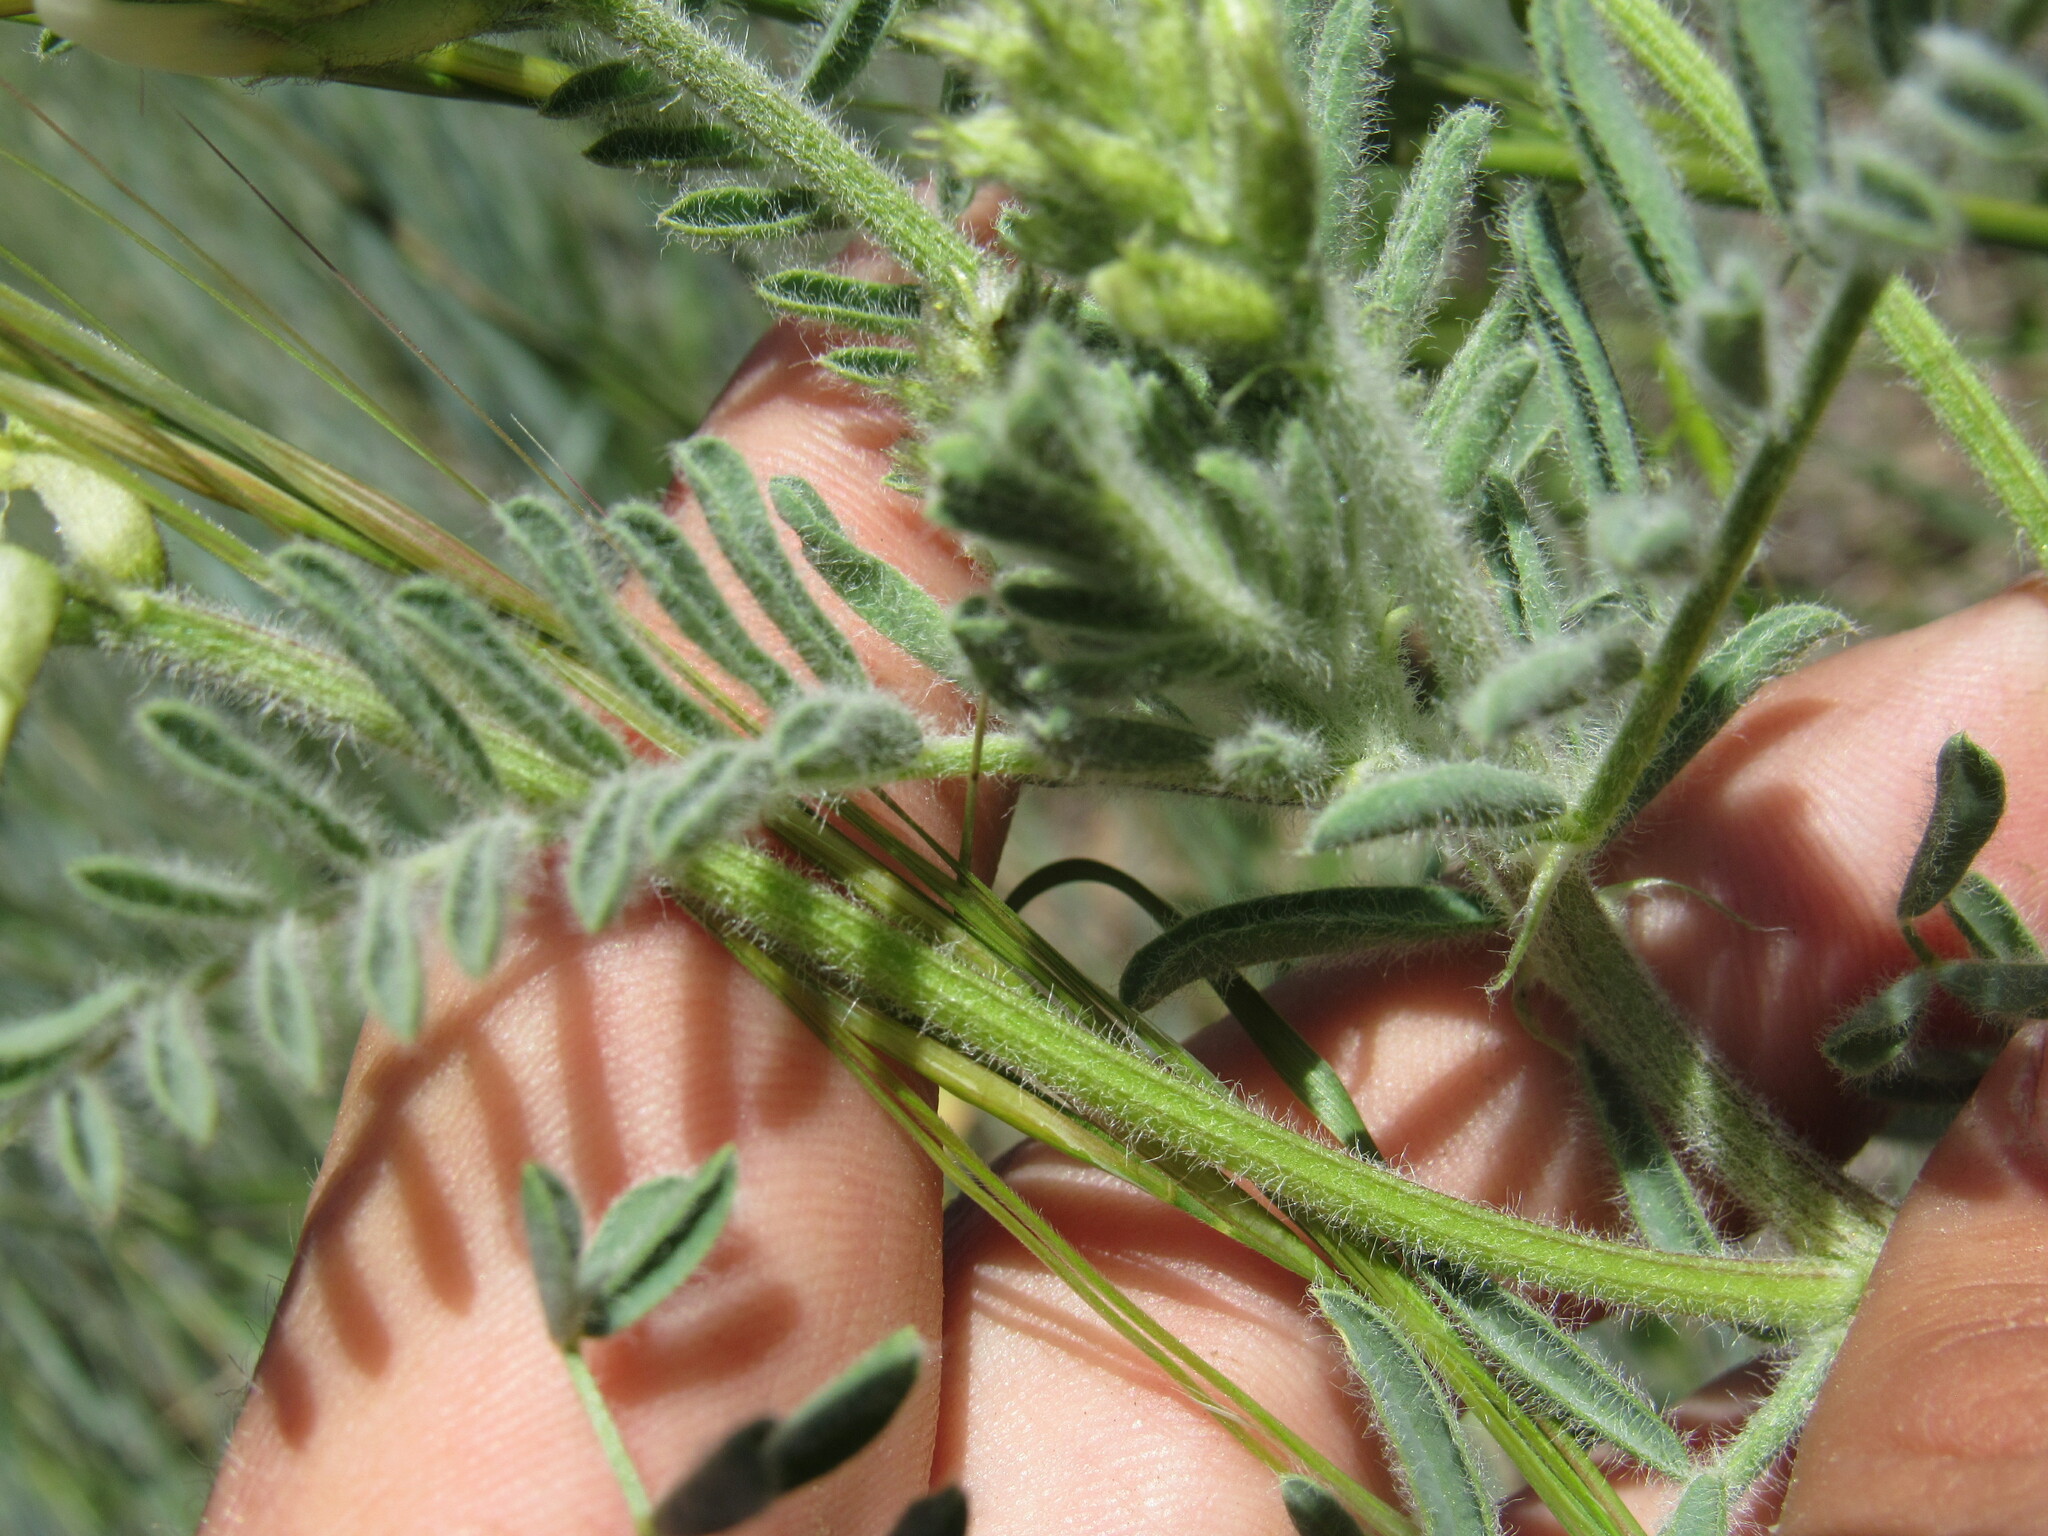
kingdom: Plantae
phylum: Tracheophyta
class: Magnoliopsida
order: Fabales
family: Fabaceae
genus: Astragalus
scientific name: Astragalus drummondii
